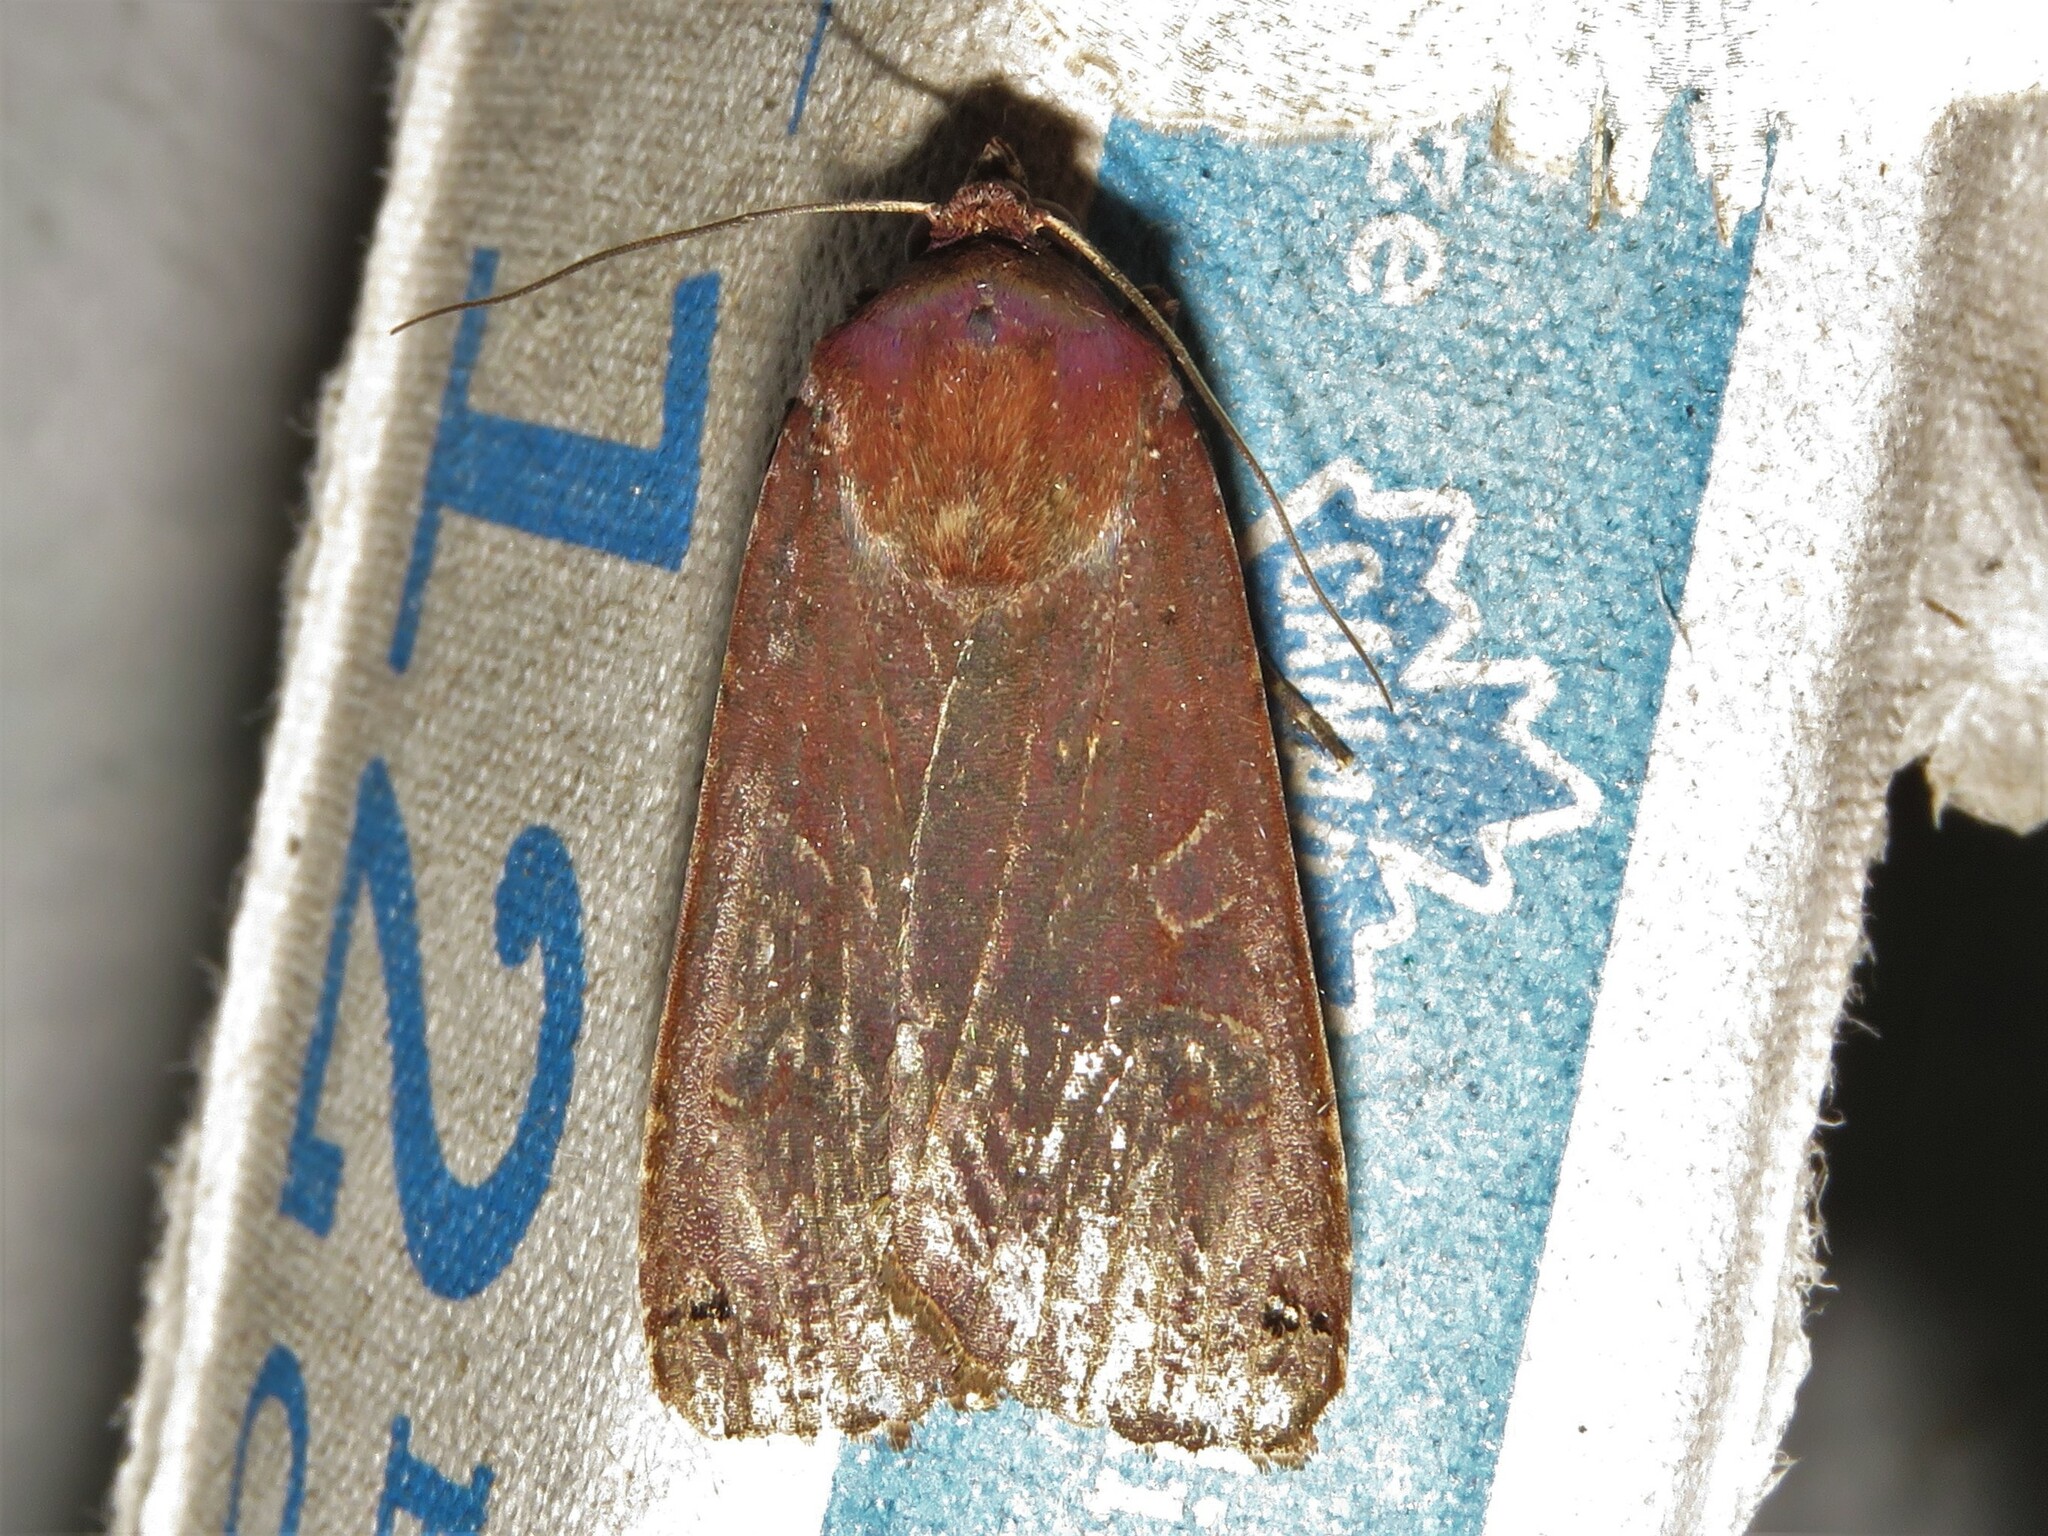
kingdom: Animalia
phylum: Arthropoda
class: Insecta
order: Lepidoptera
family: Noctuidae
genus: Noctua
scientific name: Noctua pronuba
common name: Large yellow underwing
